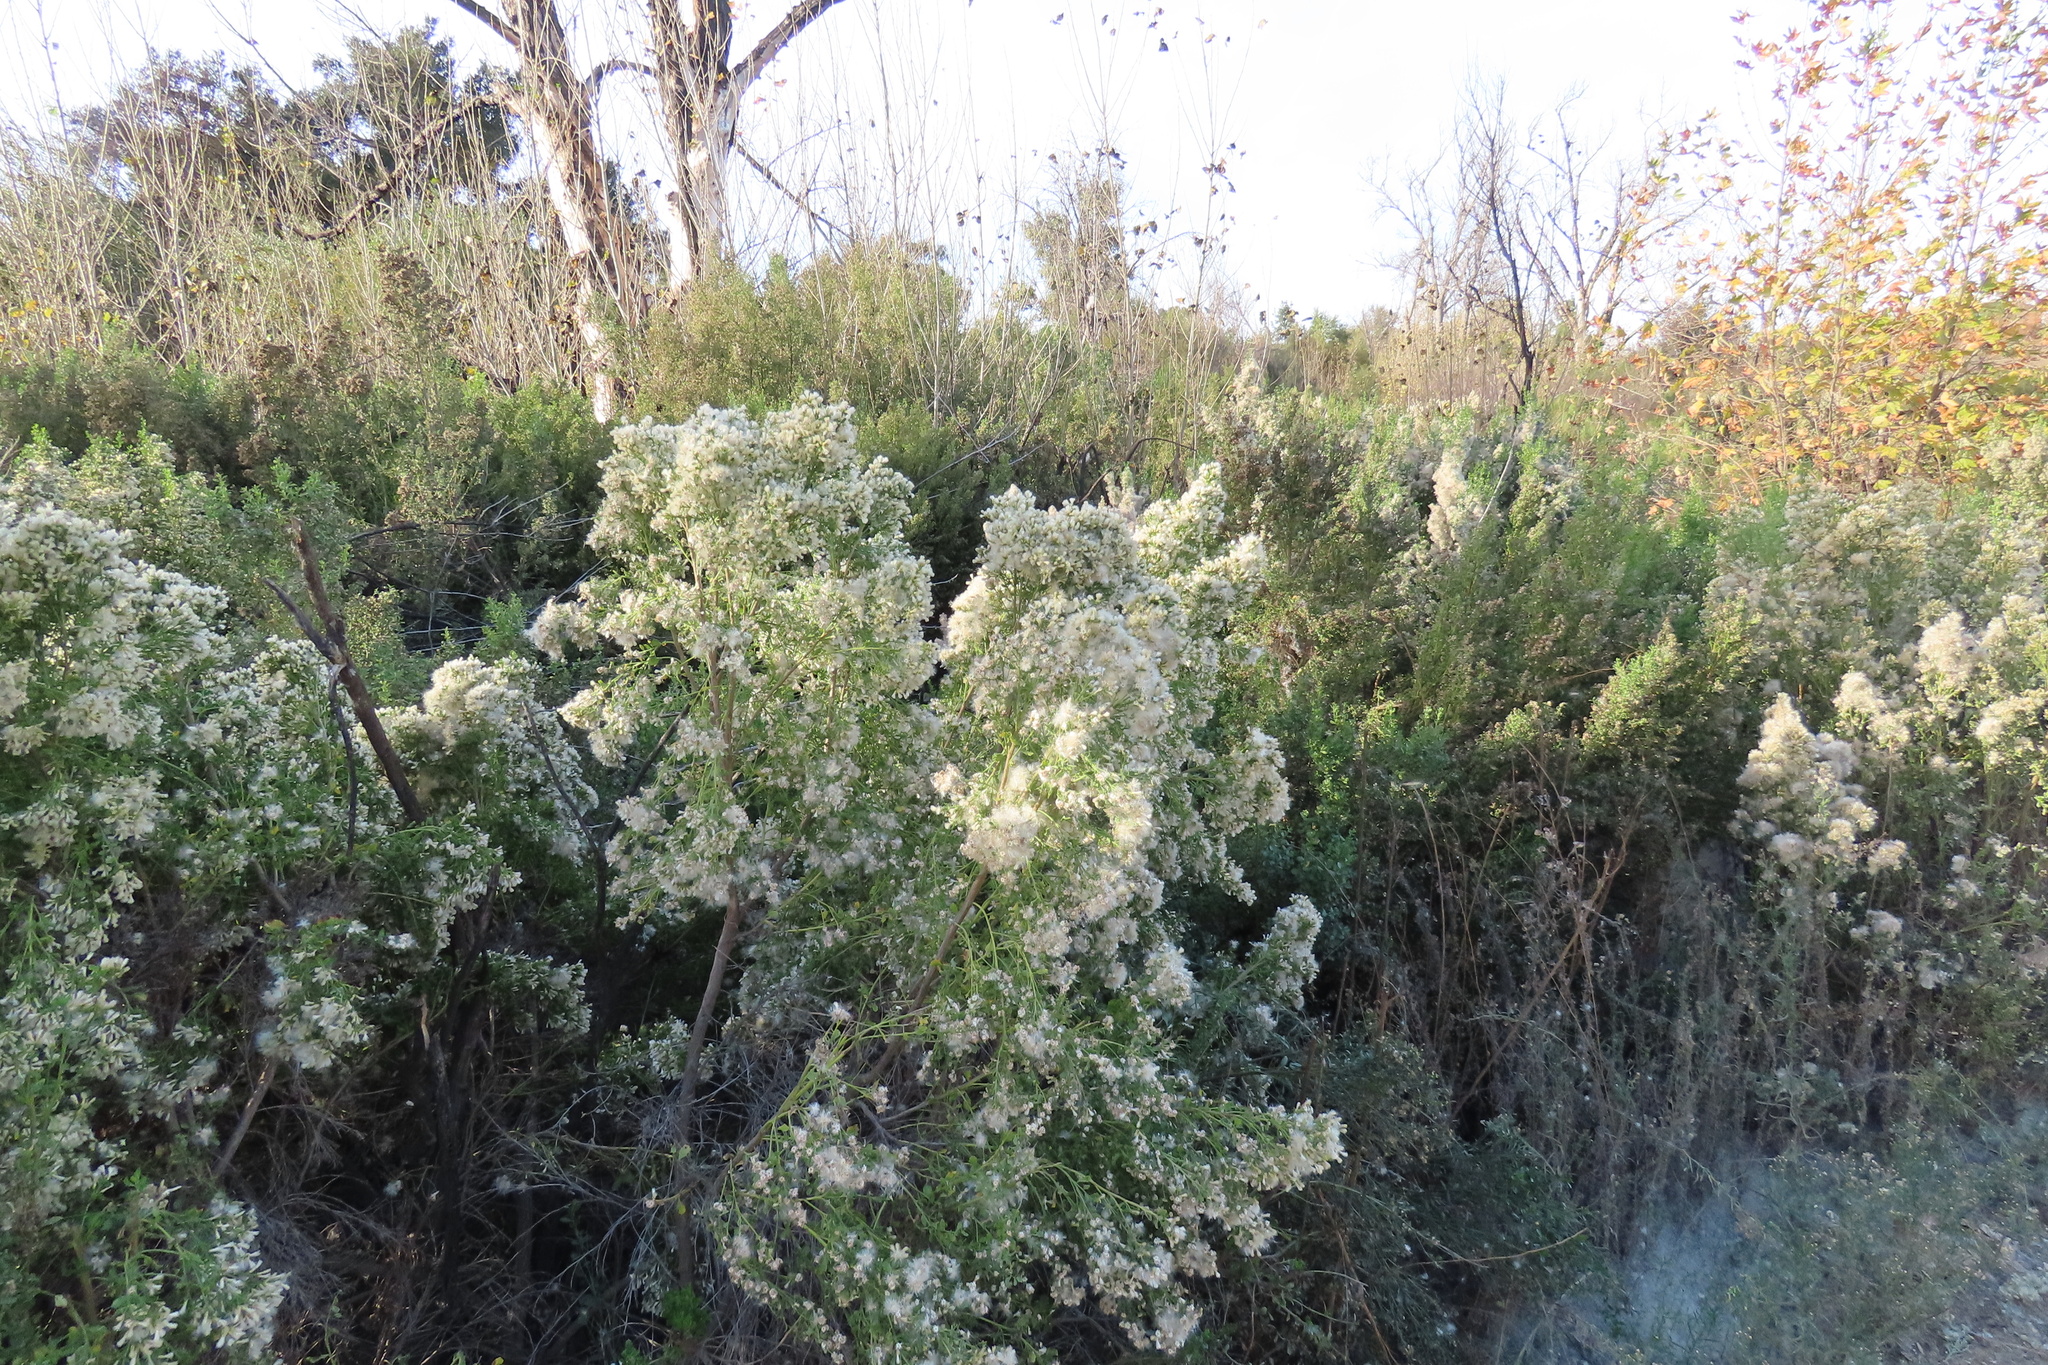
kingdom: Plantae
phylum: Tracheophyta
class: Magnoliopsida
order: Asterales
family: Asteraceae
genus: Baccharis
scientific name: Baccharis pilularis
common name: Coyotebrush
